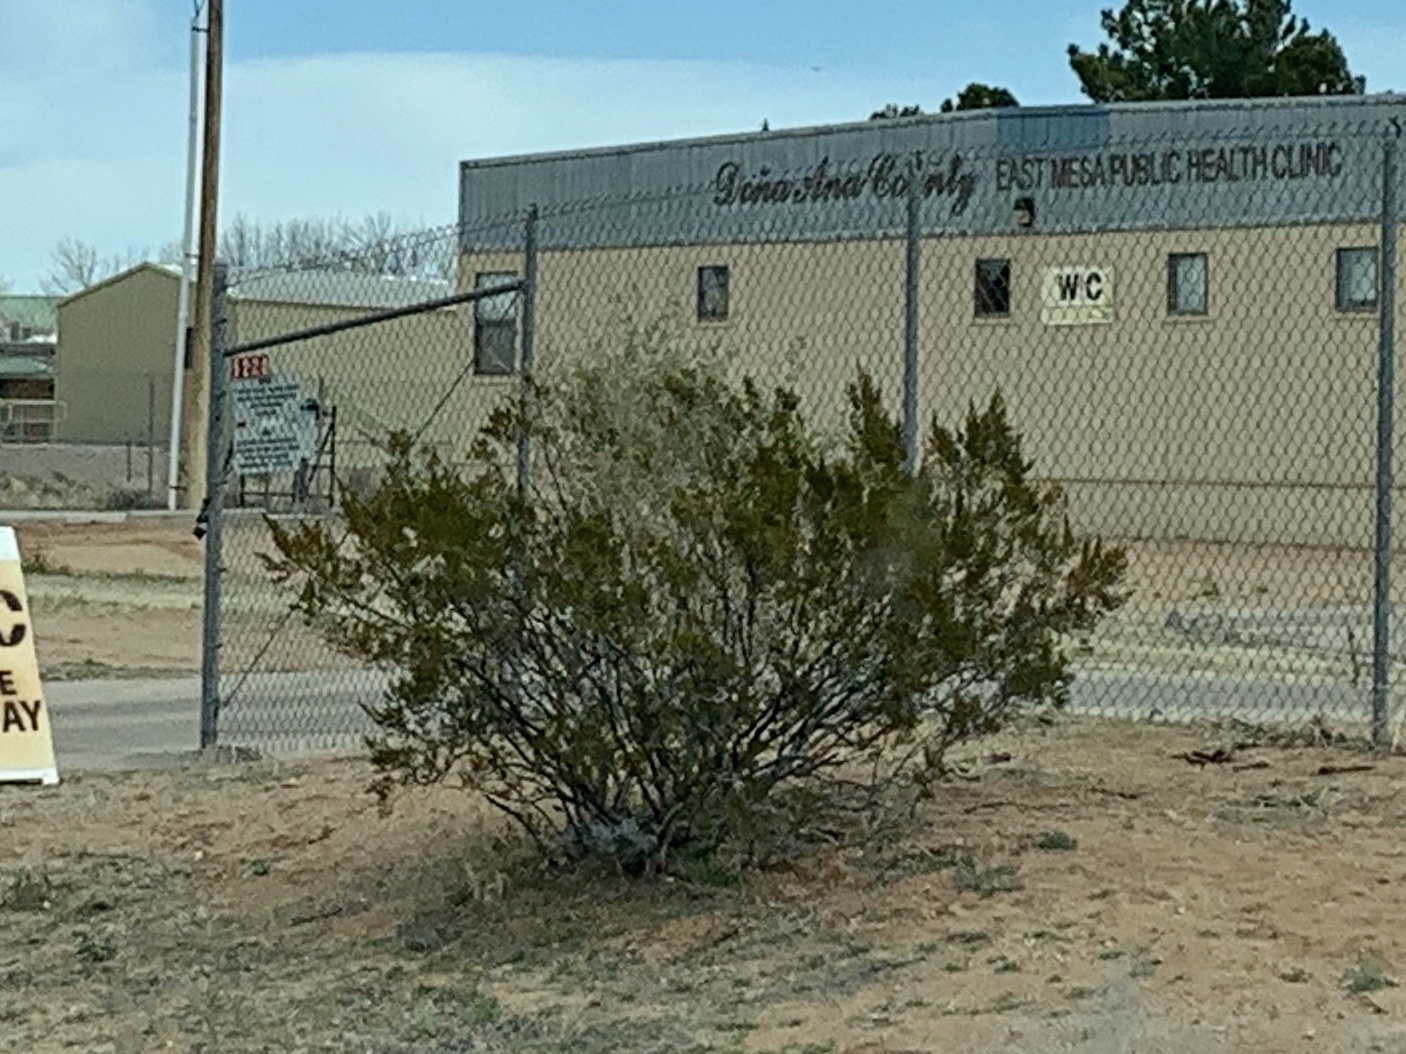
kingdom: Plantae
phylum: Tracheophyta
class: Magnoliopsida
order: Zygophyllales
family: Zygophyllaceae
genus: Larrea
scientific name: Larrea tridentata
